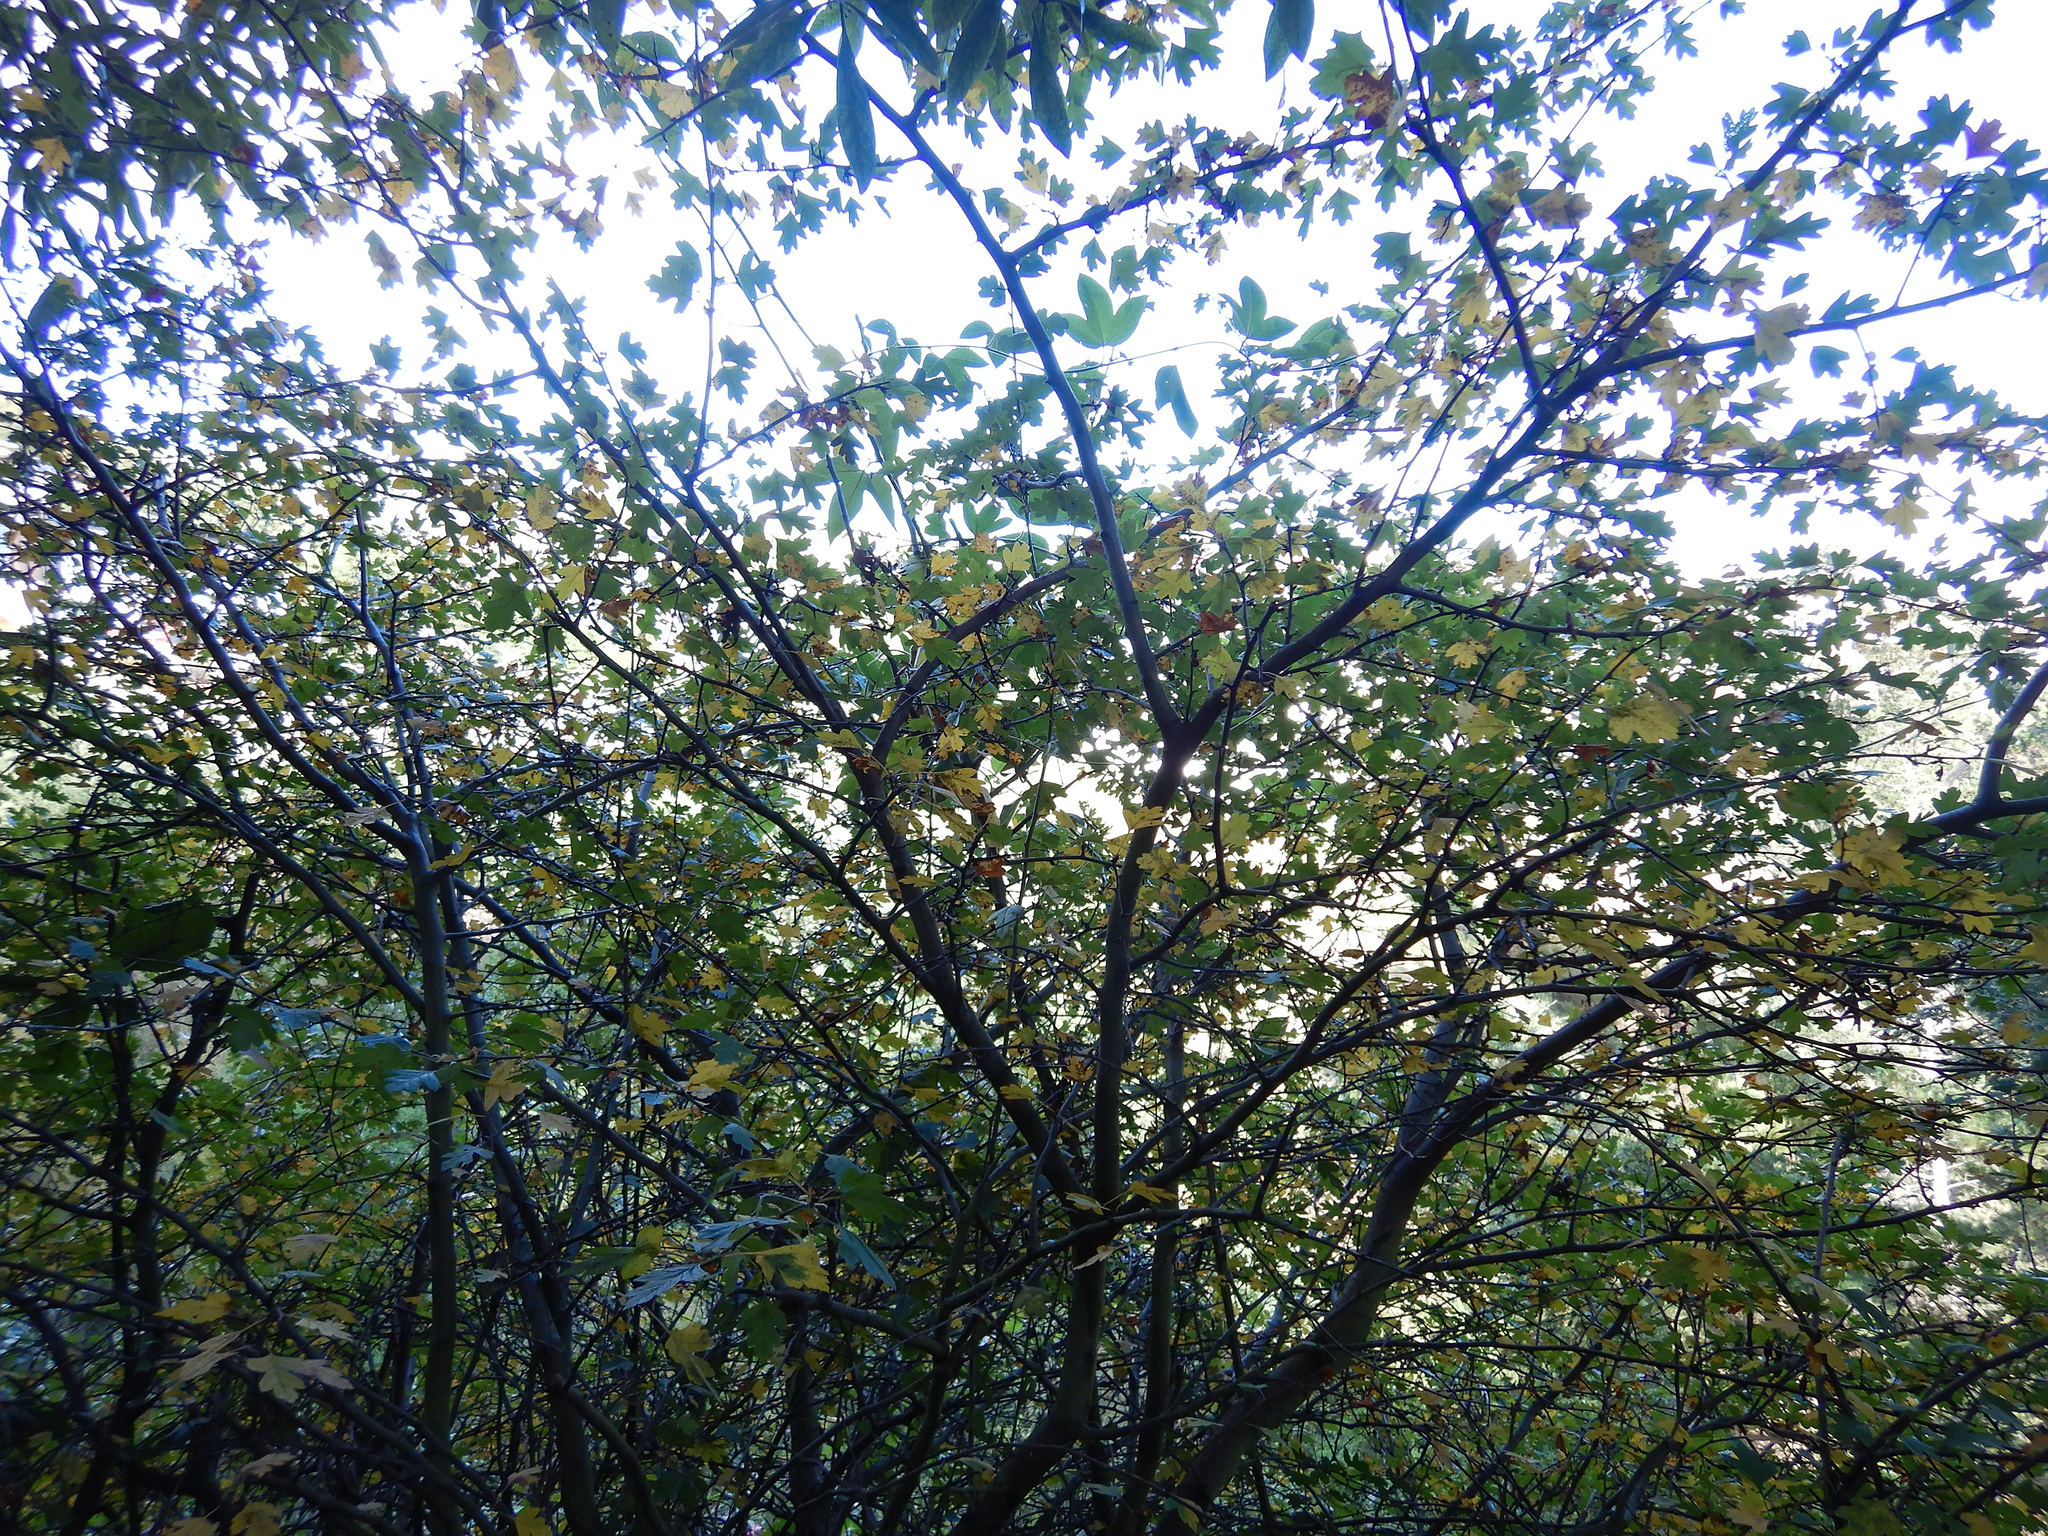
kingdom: Plantae
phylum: Tracheophyta
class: Magnoliopsida
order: Rosales
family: Rosaceae
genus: Crataegus
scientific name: Crataegus monogyna
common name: Hawthorn
